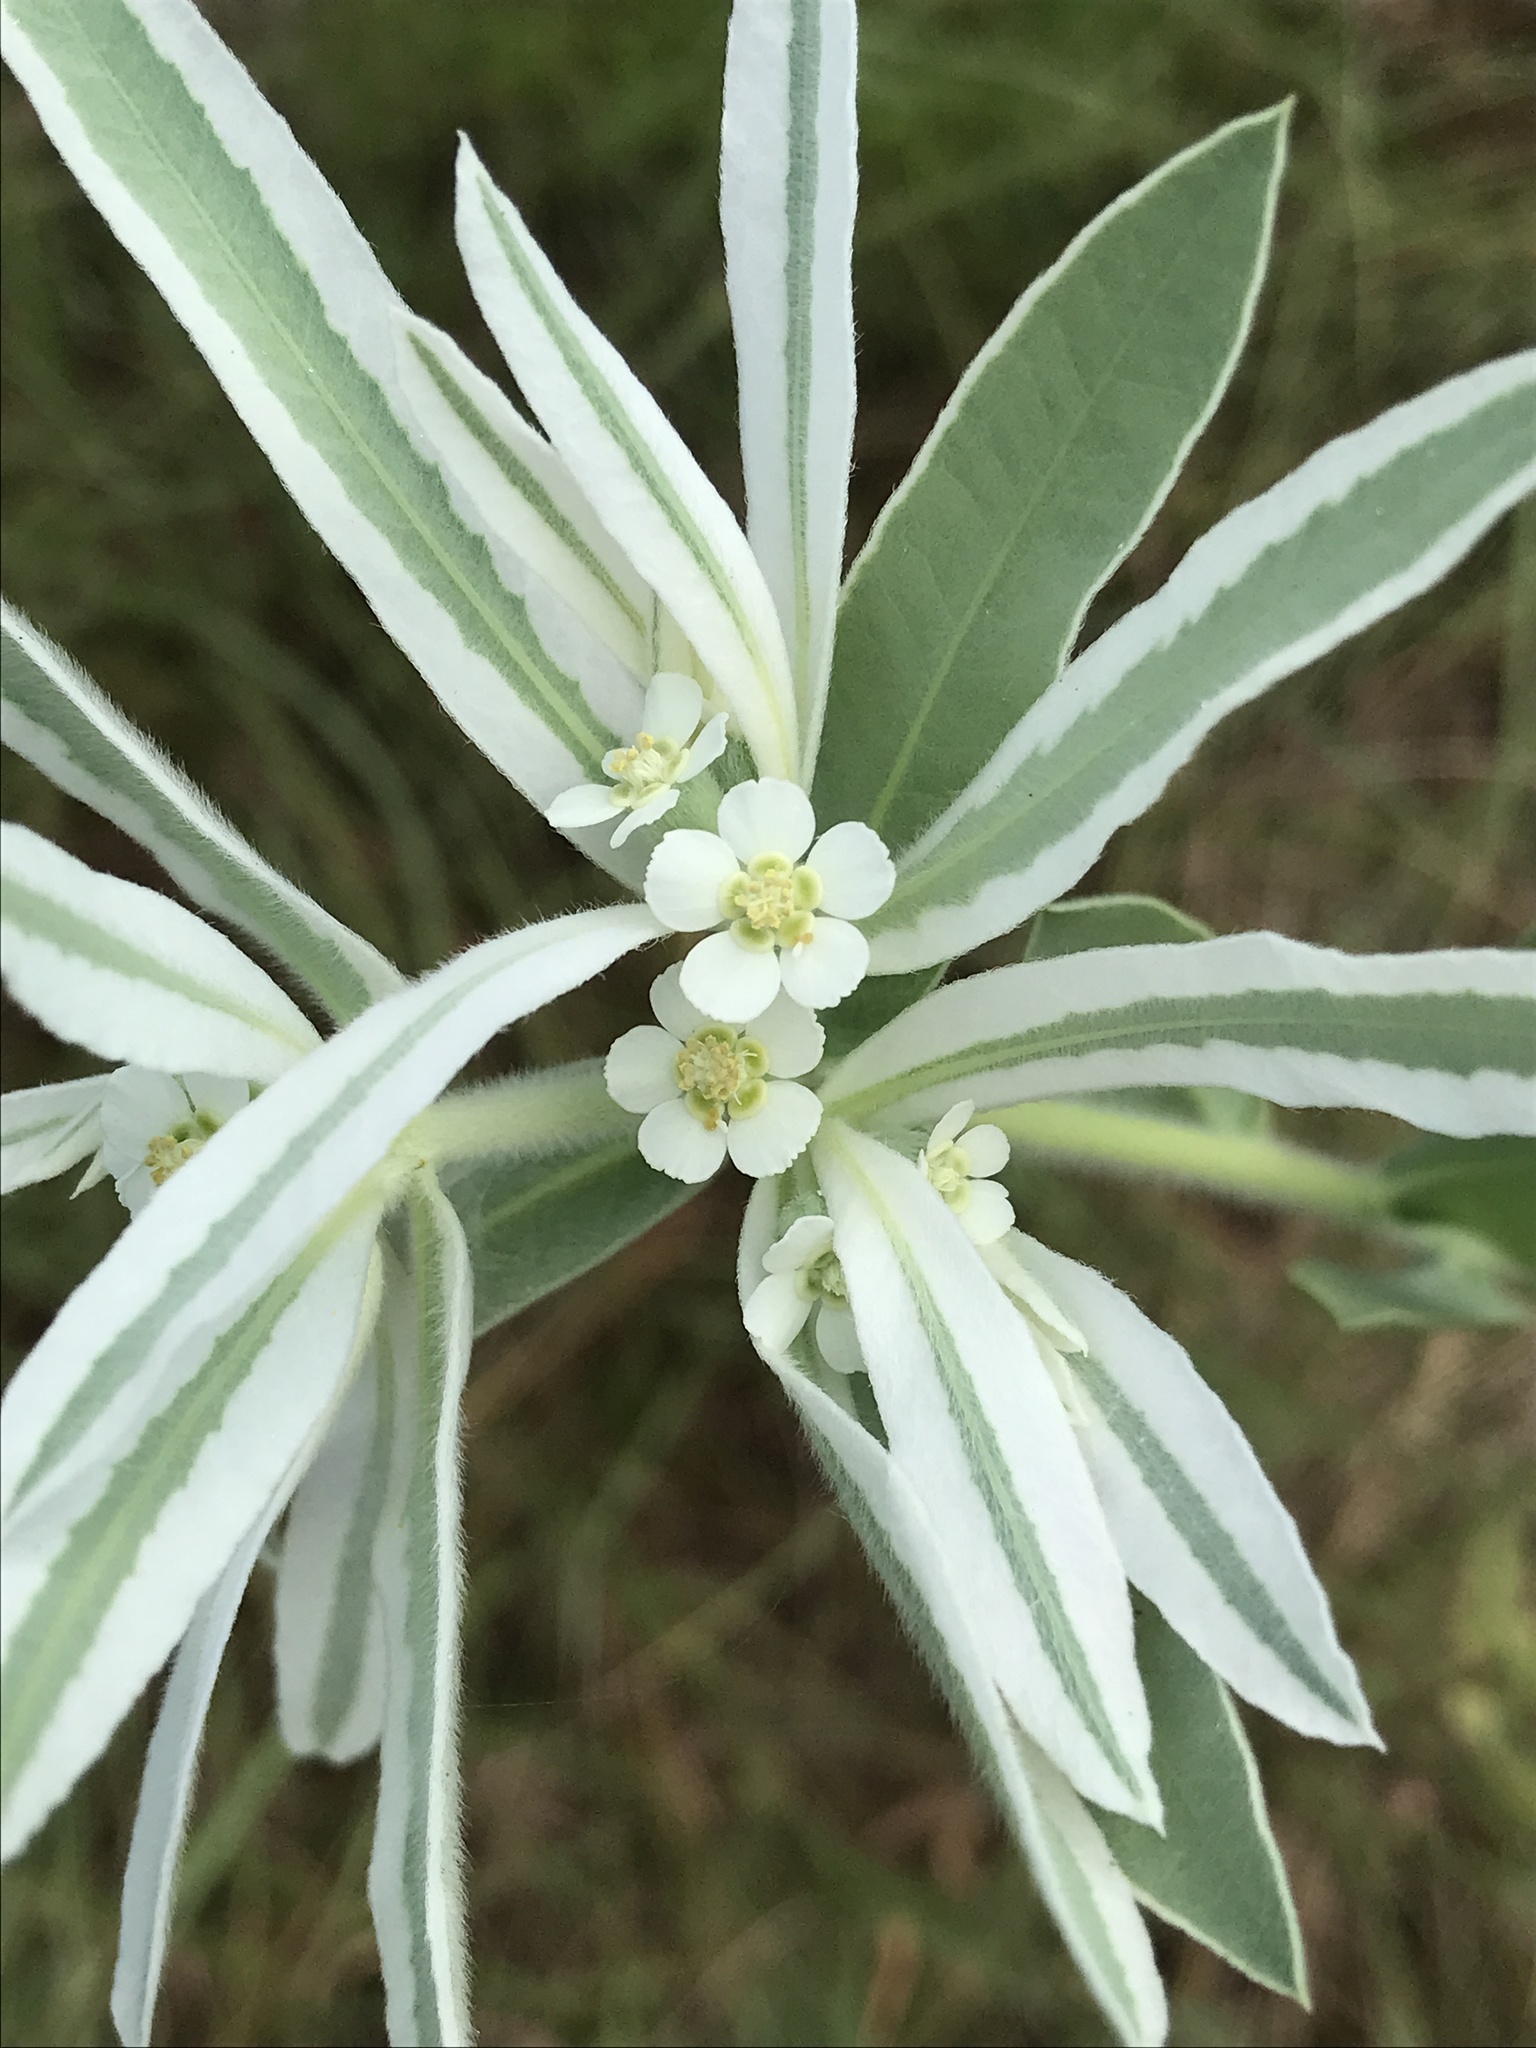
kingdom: Plantae
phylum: Tracheophyta
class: Magnoliopsida
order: Malpighiales
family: Euphorbiaceae
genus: Euphorbia
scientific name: Euphorbia bicolor
